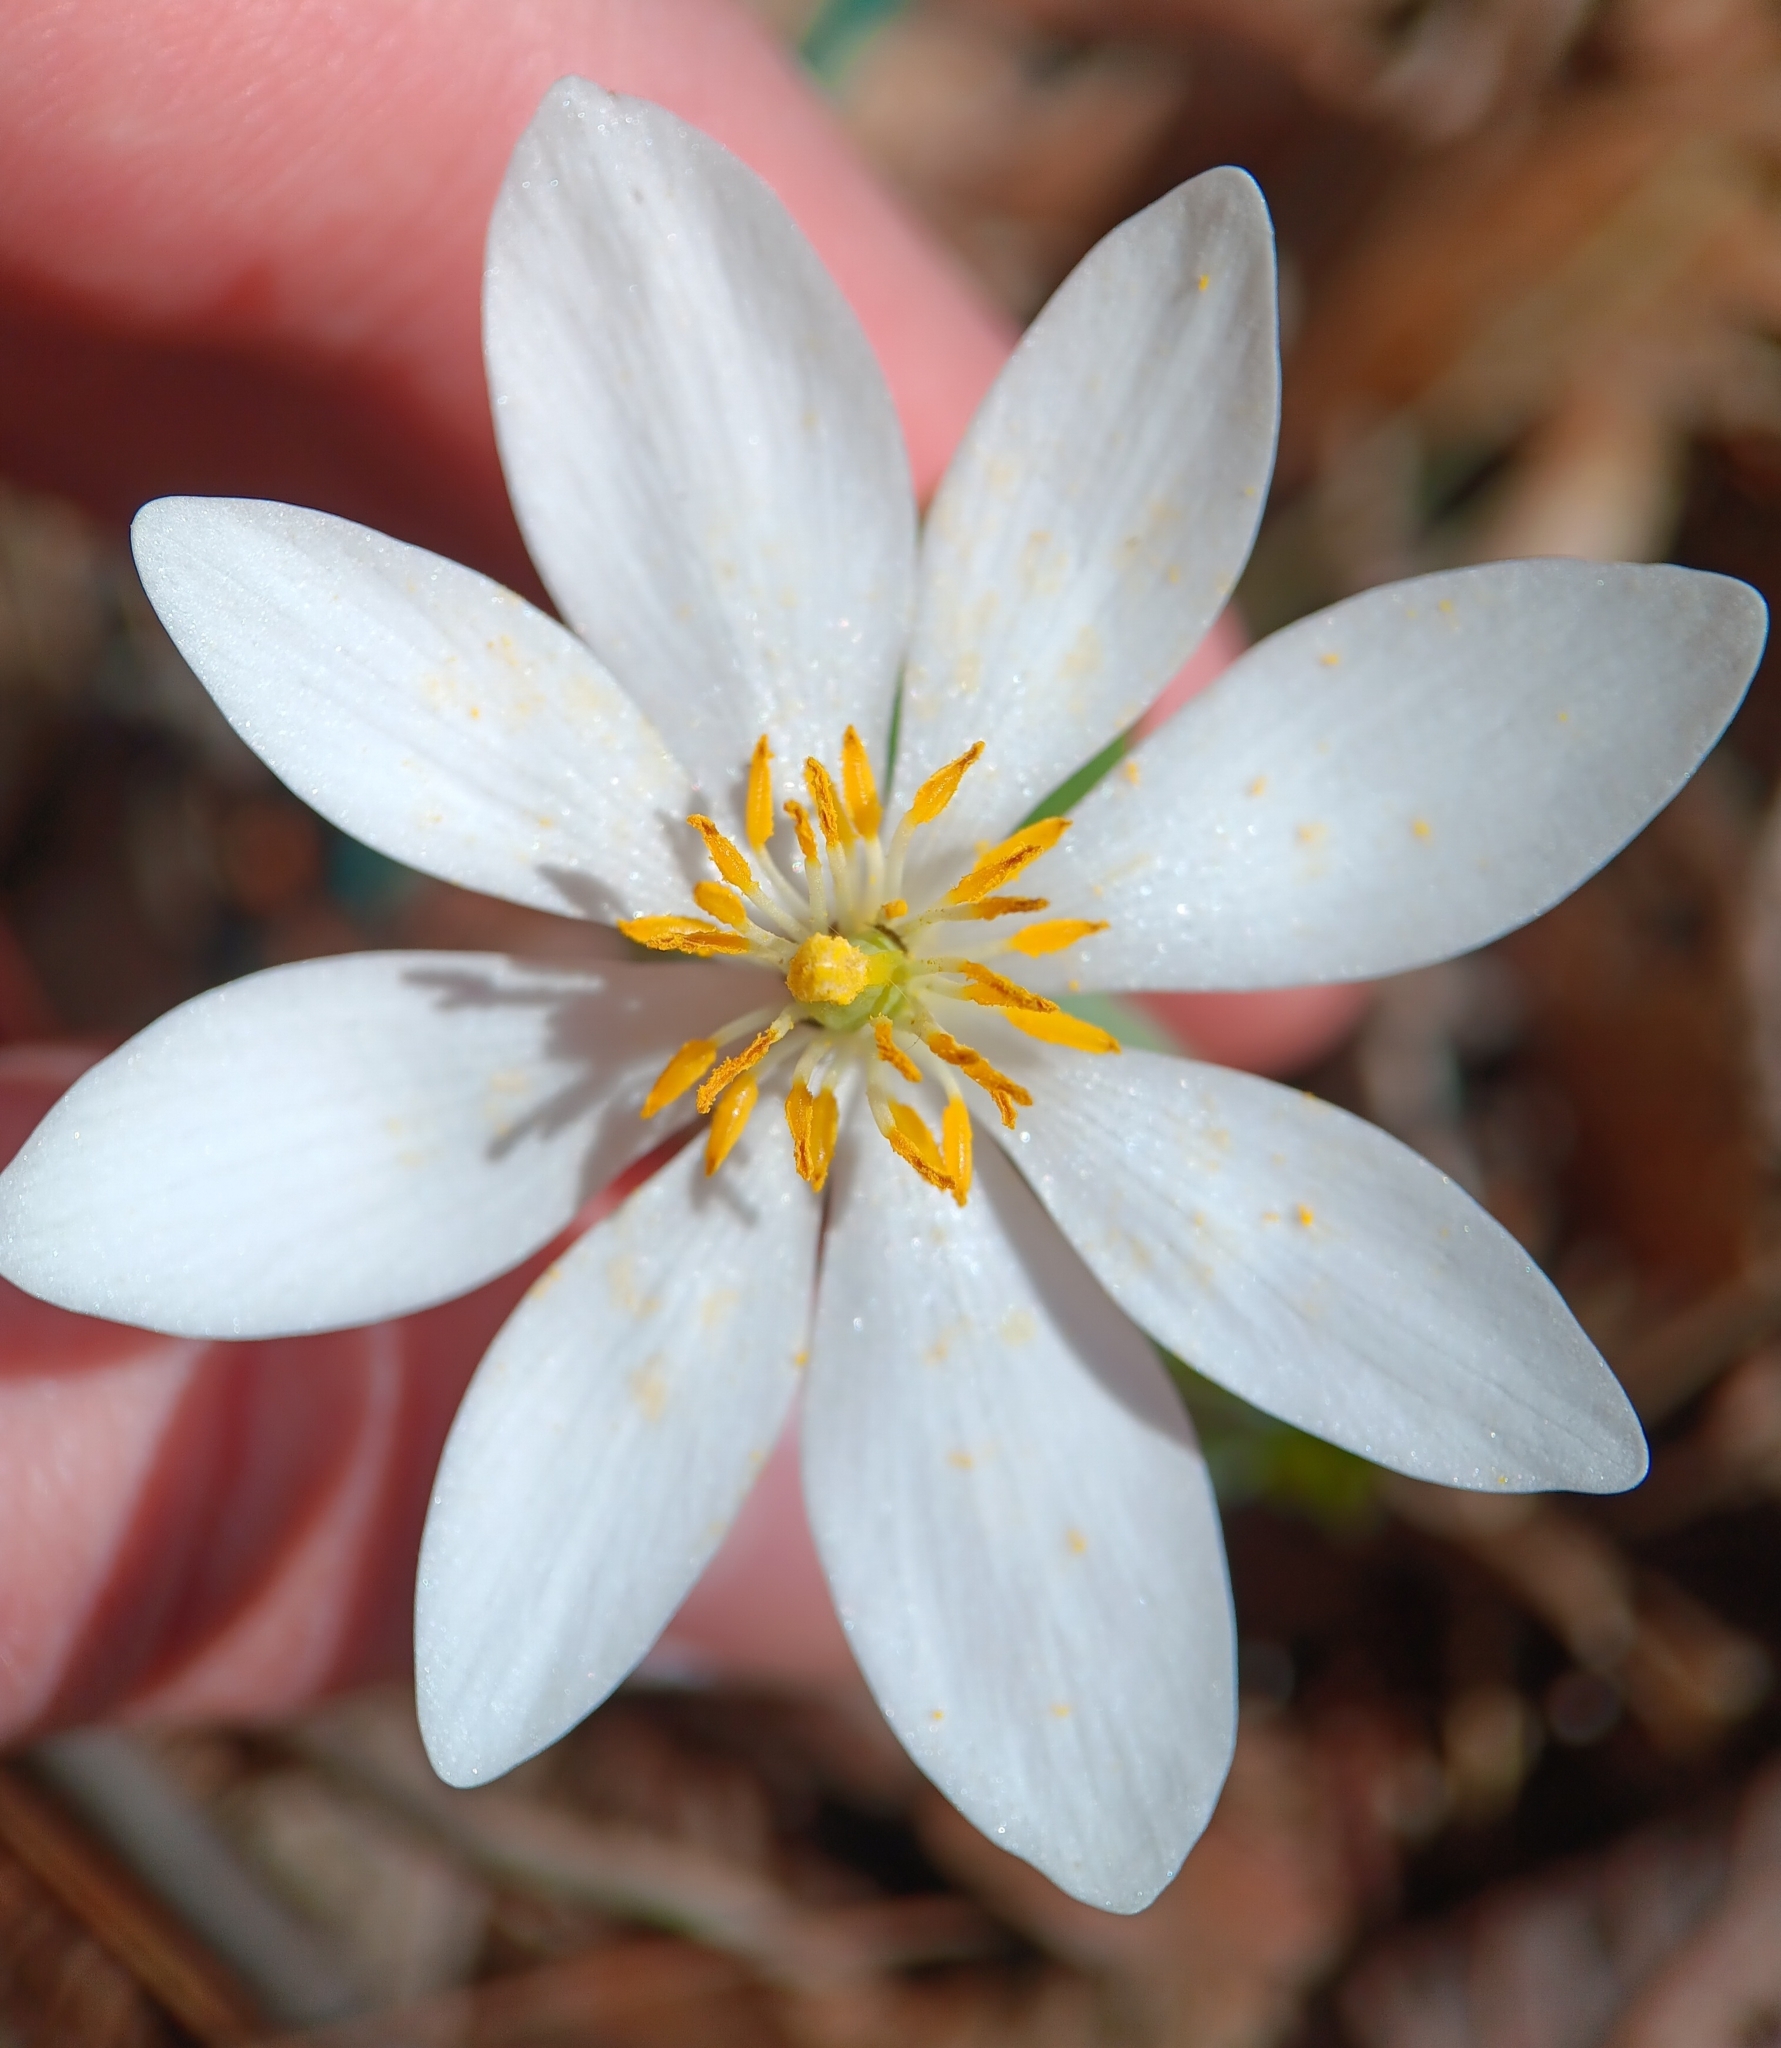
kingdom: Plantae
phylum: Tracheophyta
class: Magnoliopsida
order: Ranunculales
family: Papaveraceae
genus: Sanguinaria
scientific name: Sanguinaria canadensis
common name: Bloodroot
